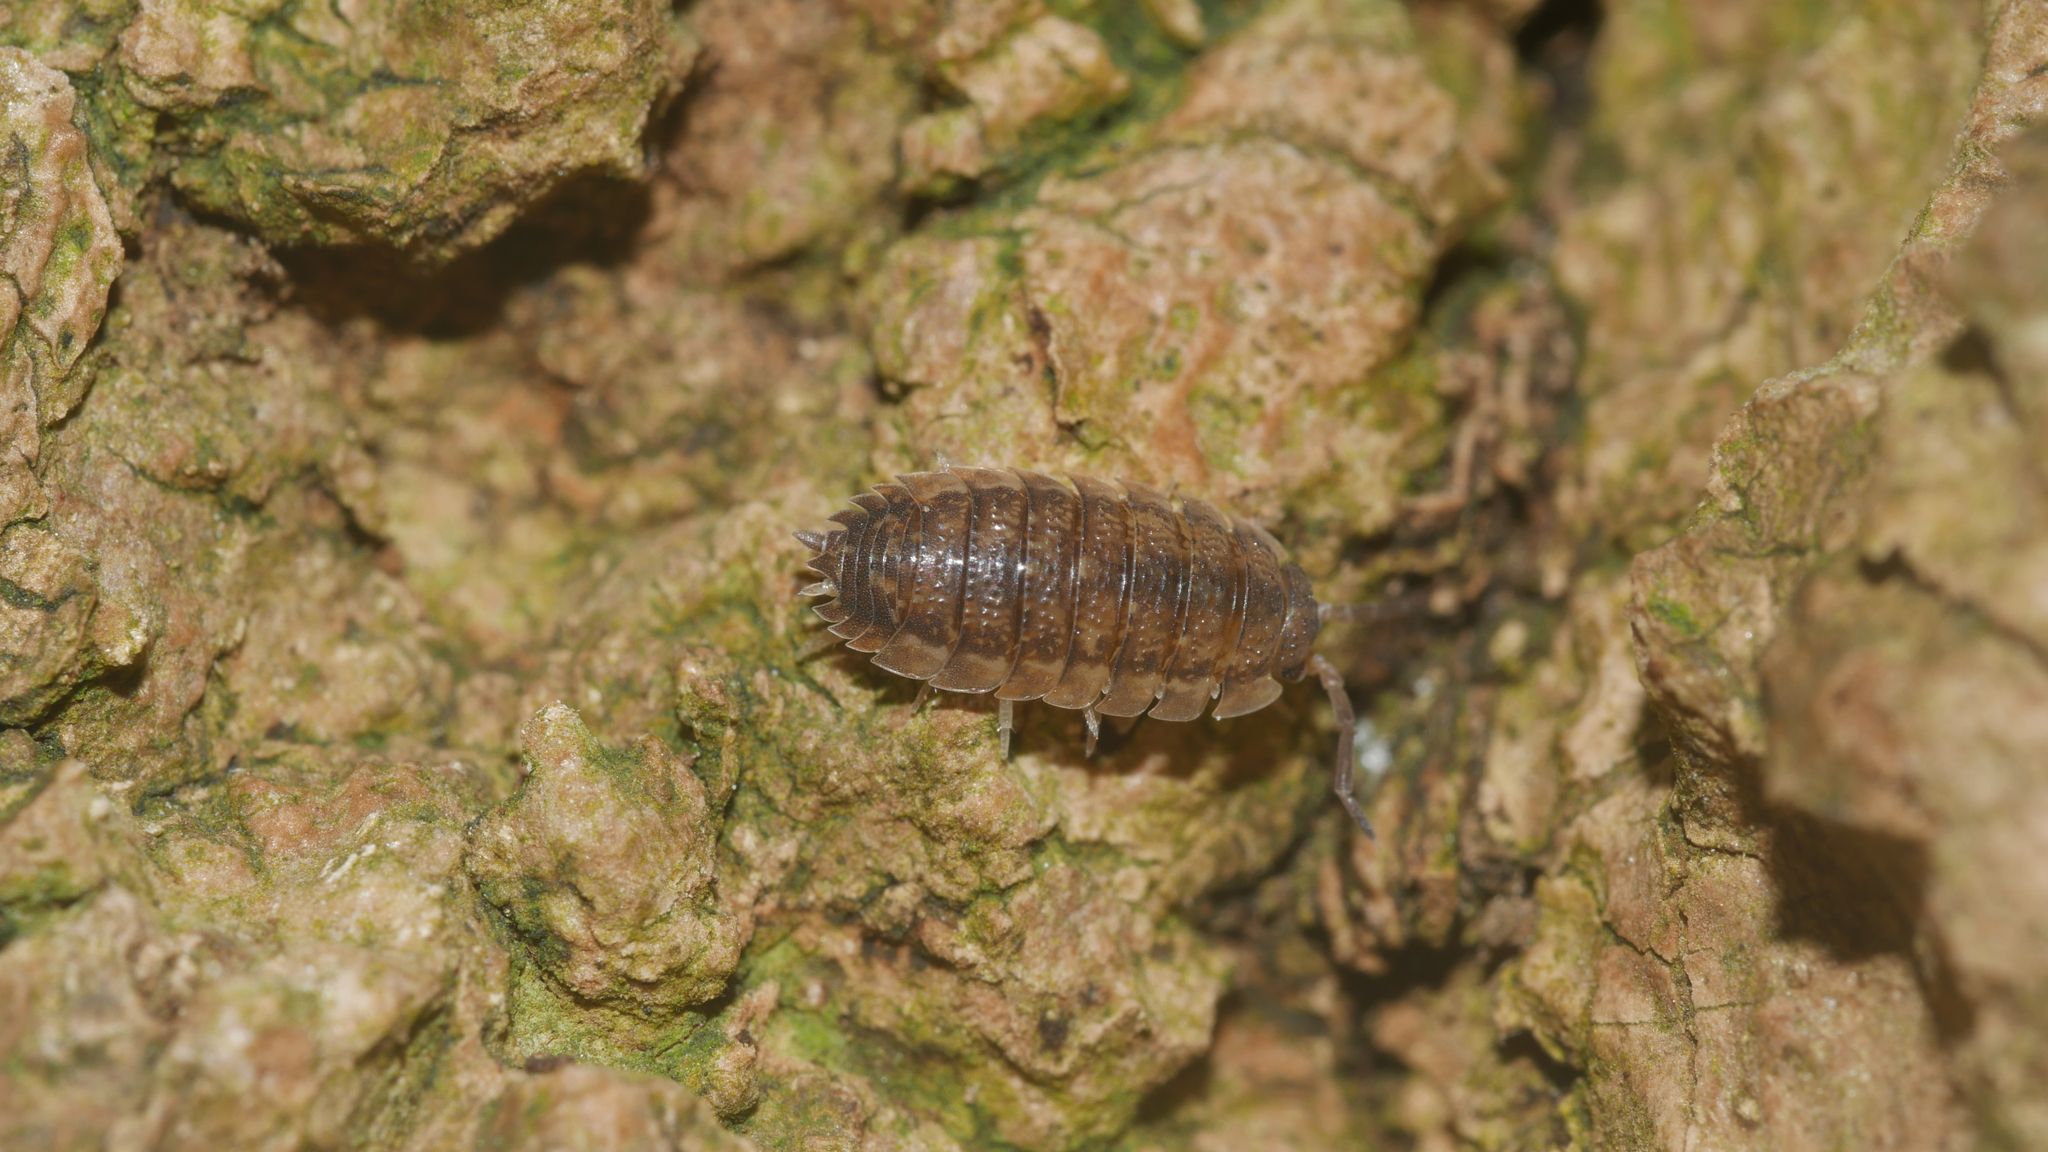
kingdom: Animalia
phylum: Arthropoda
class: Malacostraca
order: Isopoda
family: Porcellionidae
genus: Porcellio
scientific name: Porcellio scaber
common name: Common rough woodlouse
